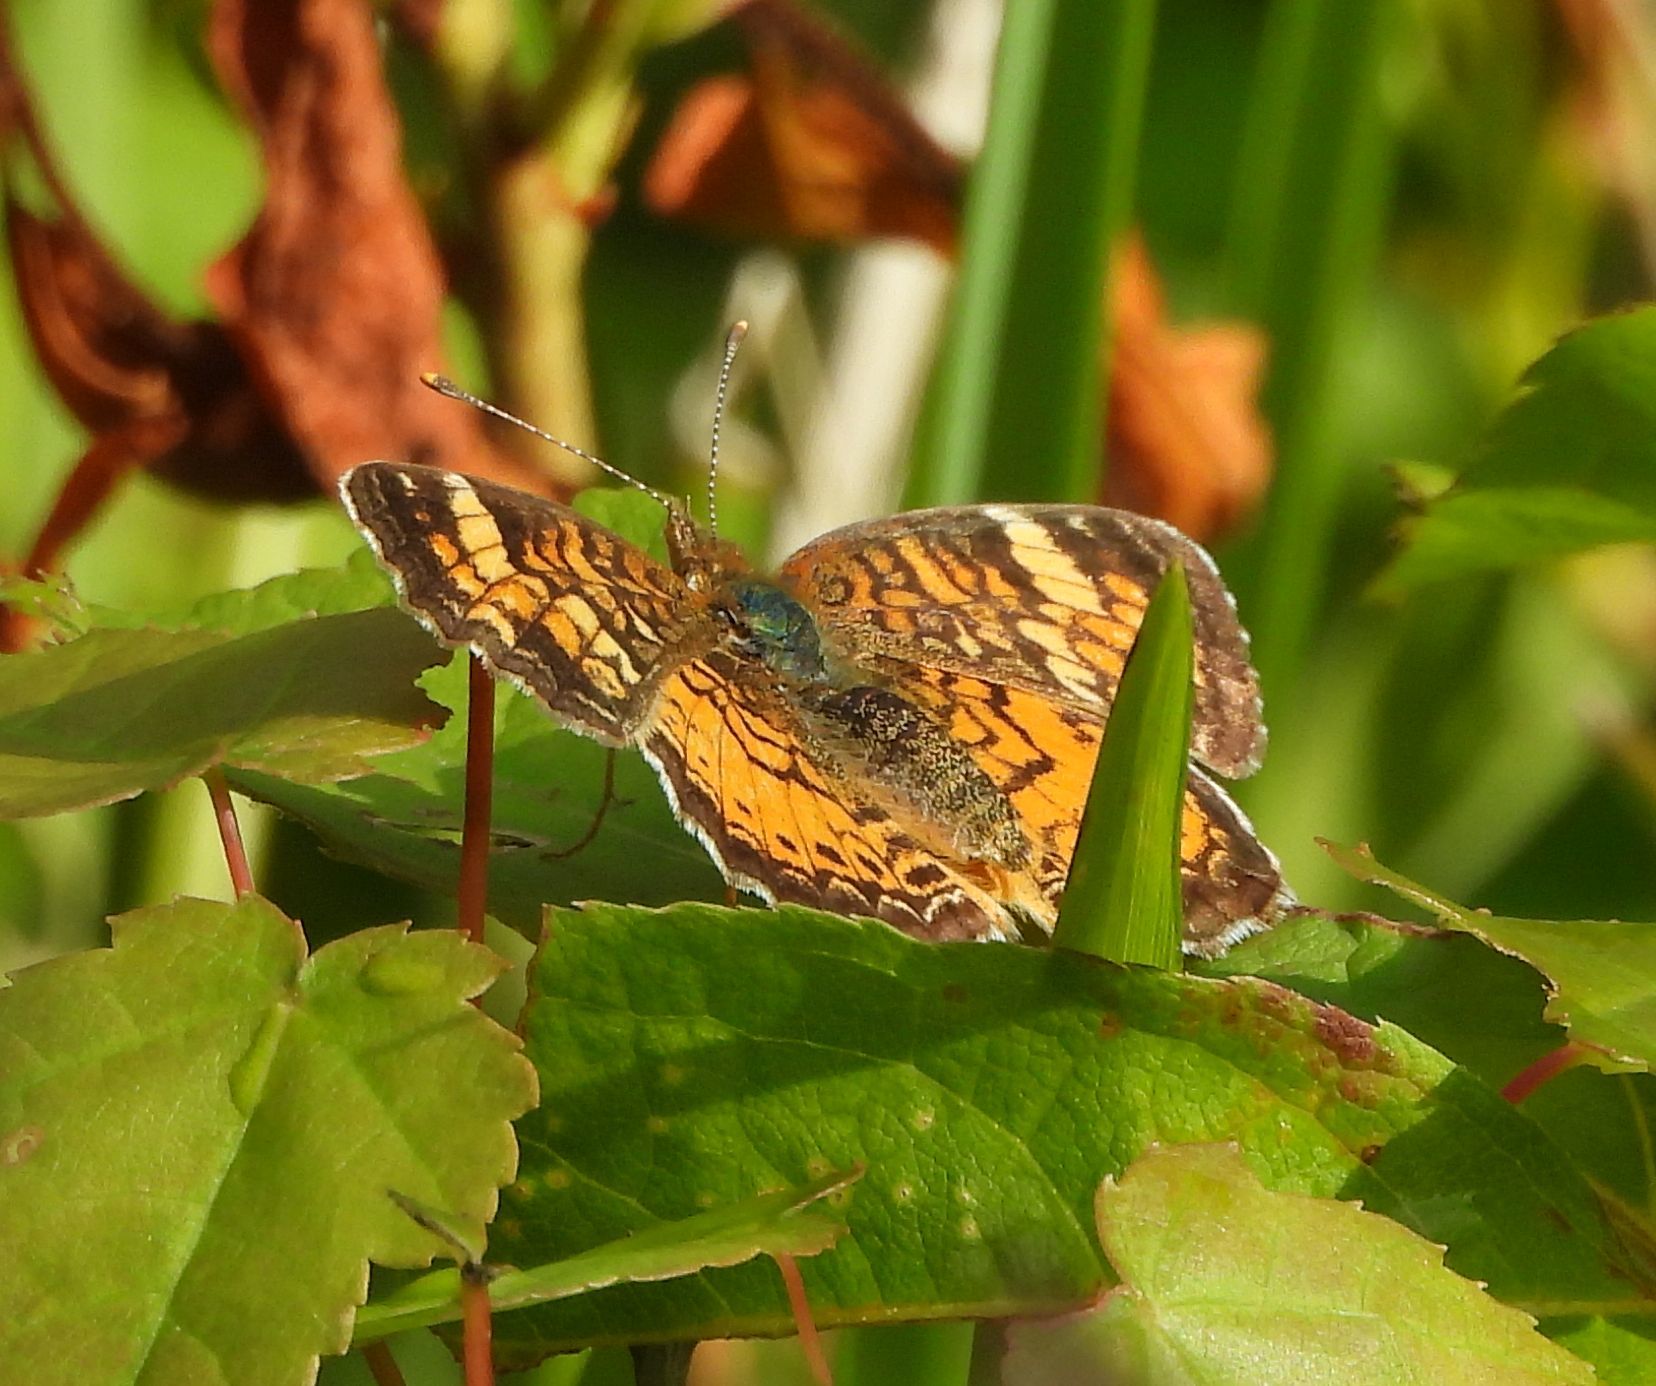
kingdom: Animalia
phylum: Arthropoda
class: Insecta
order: Lepidoptera
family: Nymphalidae
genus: Phyciodes
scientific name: Phyciodes tharos
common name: Pearl crescent
